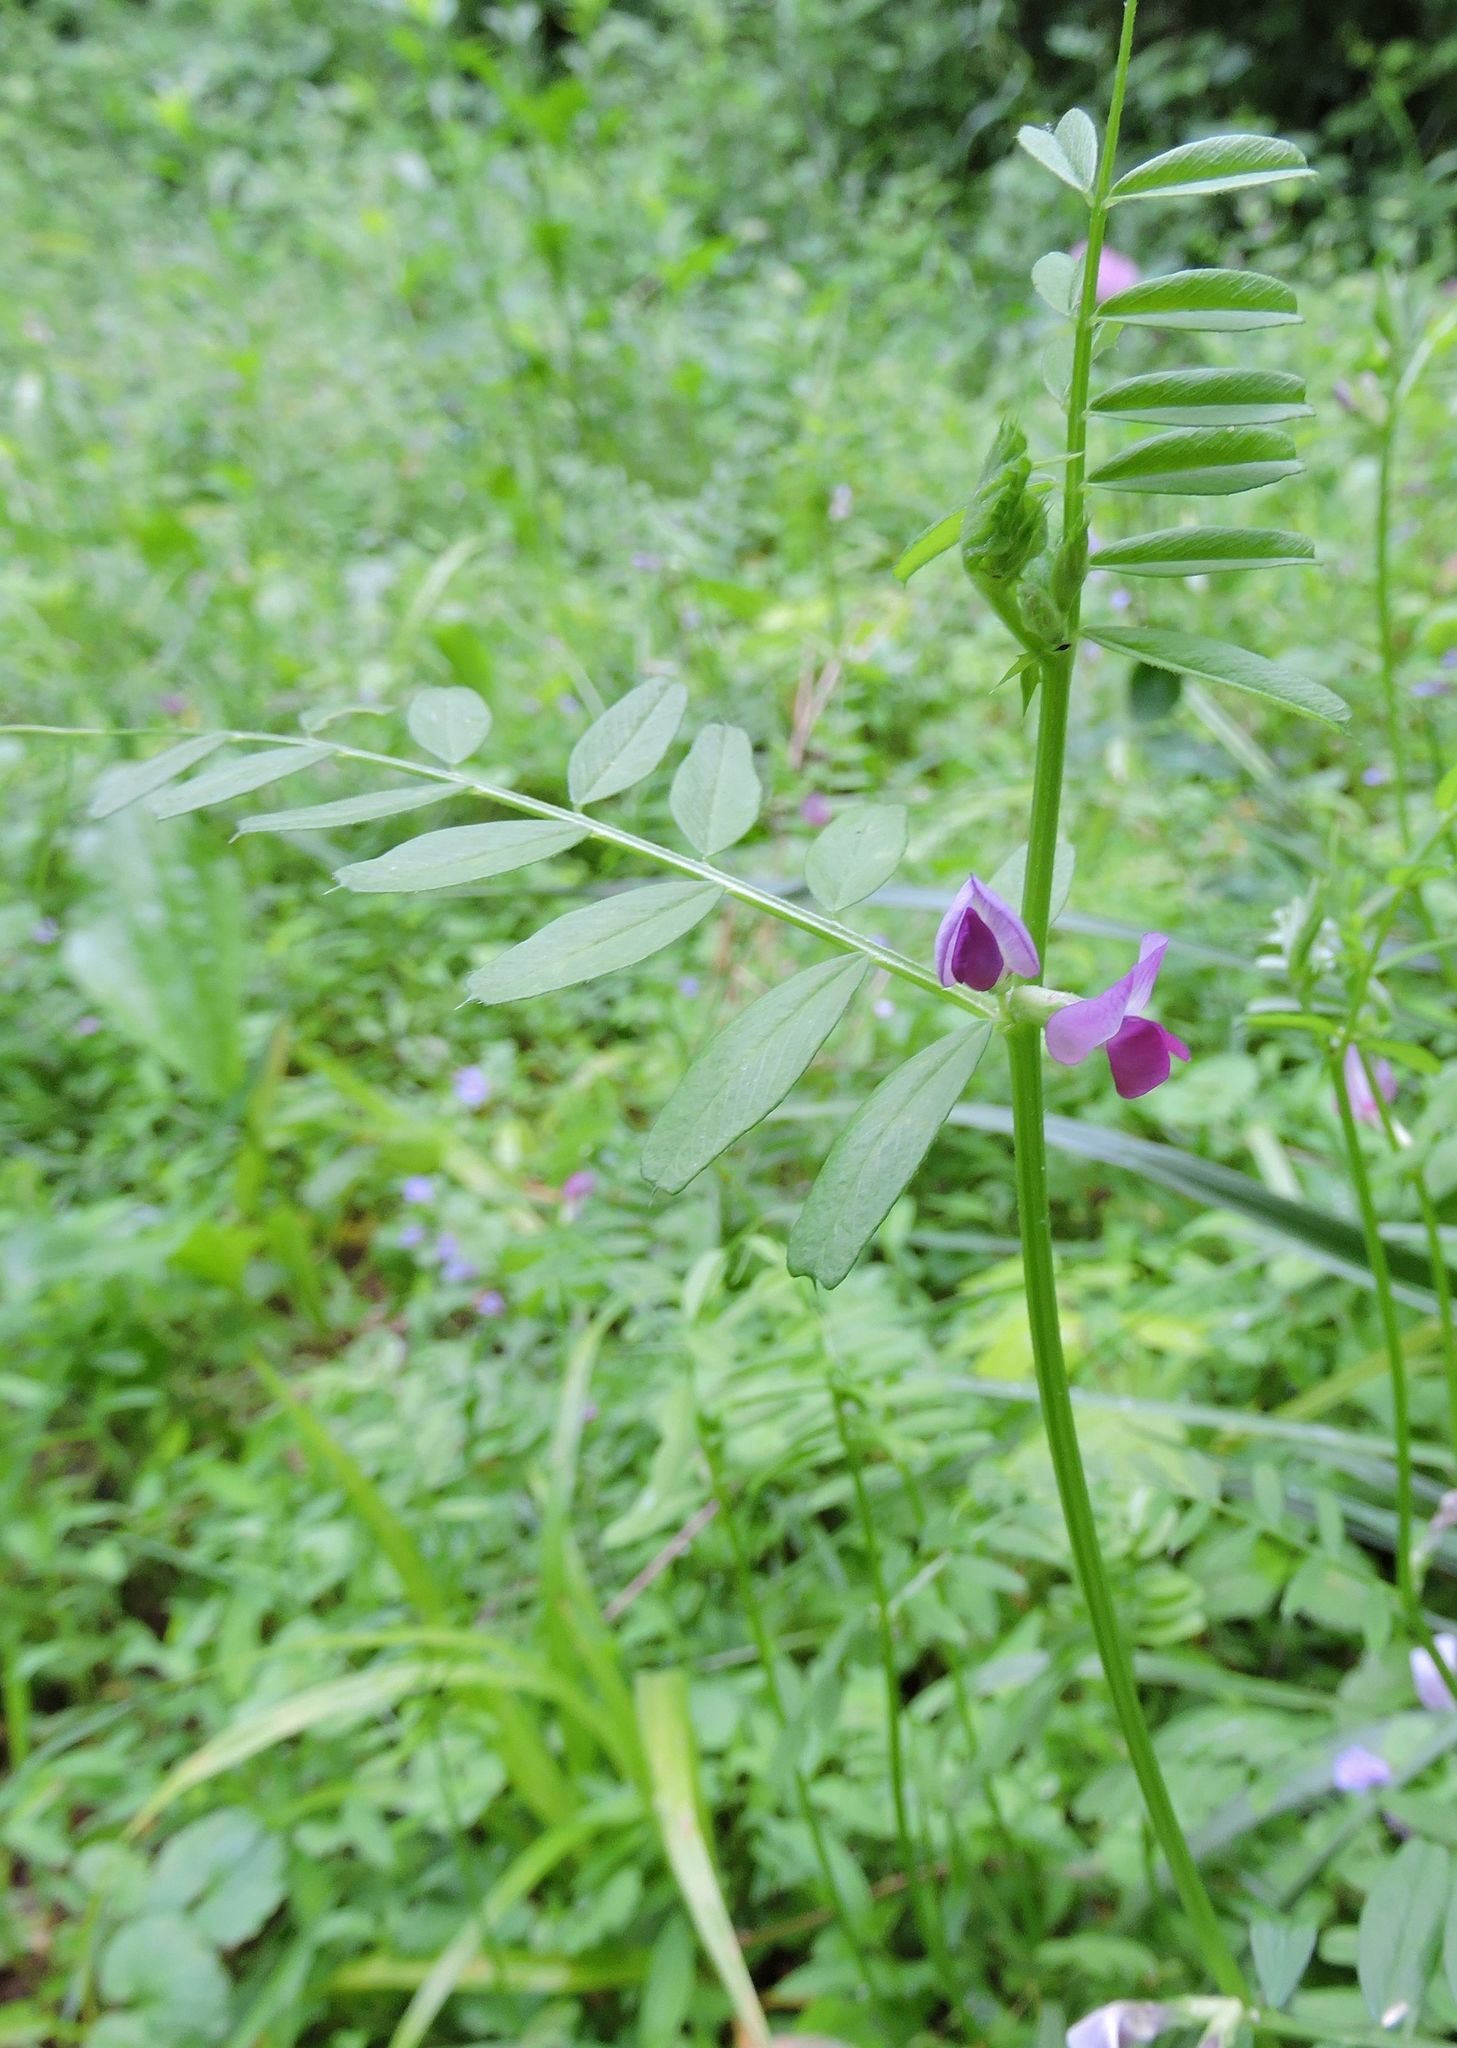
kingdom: Plantae
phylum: Tracheophyta
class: Magnoliopsida
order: Fabales
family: Fabaceae
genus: Vicia
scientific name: Vicia sativa
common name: Garden vetch
